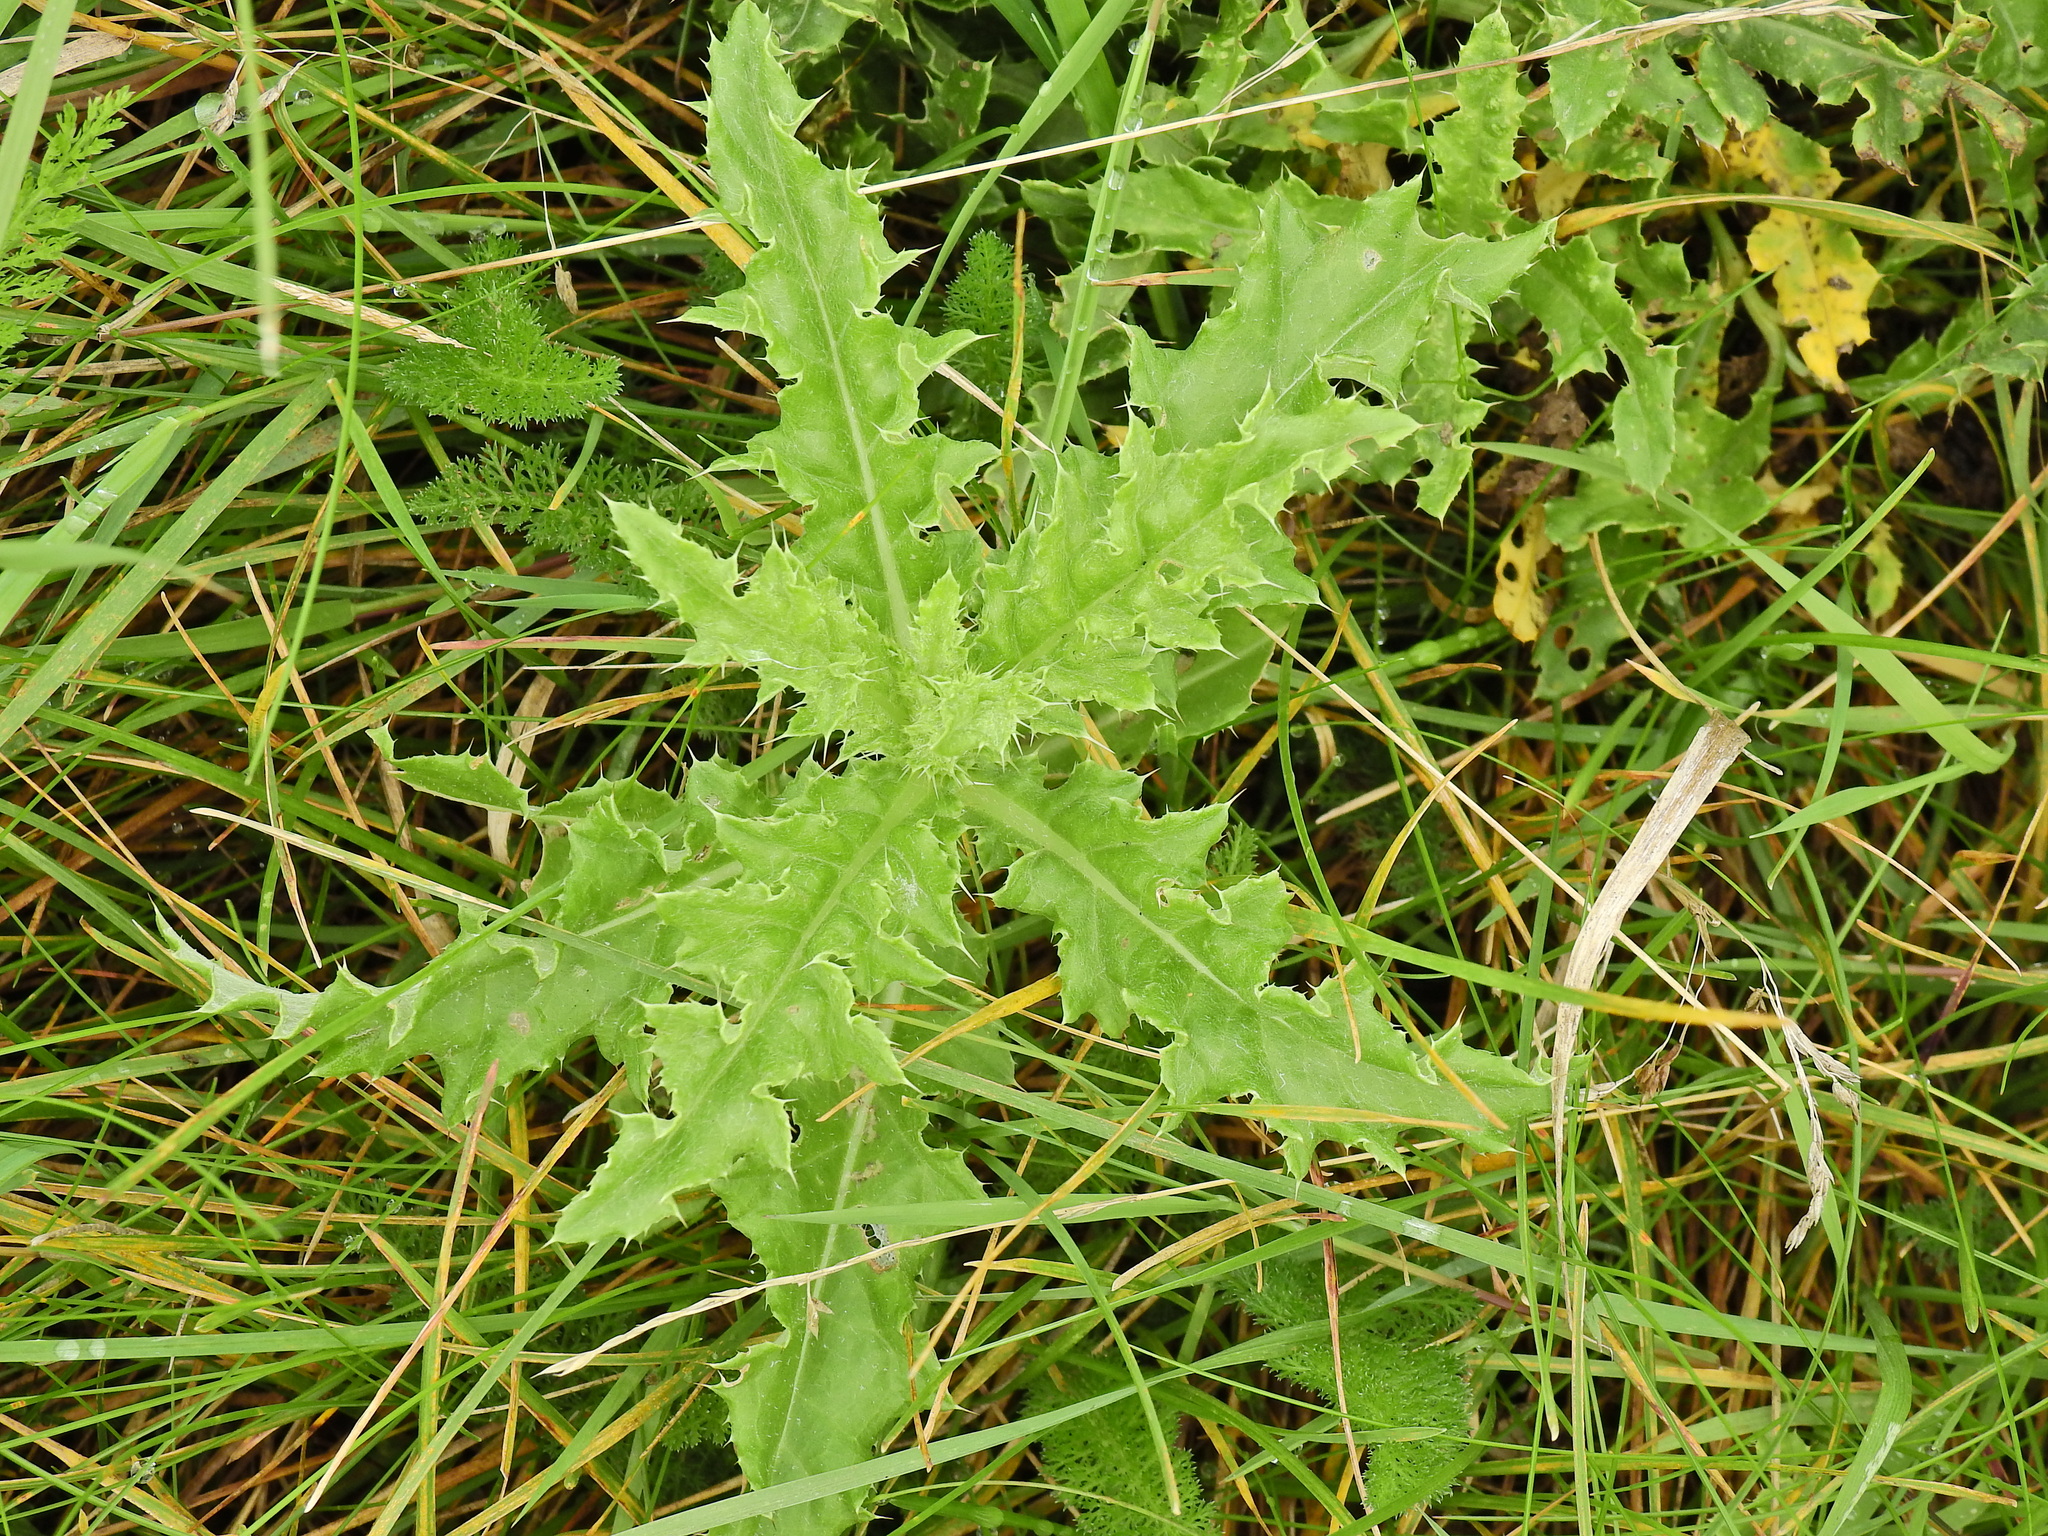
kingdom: Plantae
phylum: Tracheophyta
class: Magnoliopsida
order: Asterales
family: Asteraceae
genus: Cirsium
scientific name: Cirsium arvense
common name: Creeping thistle
